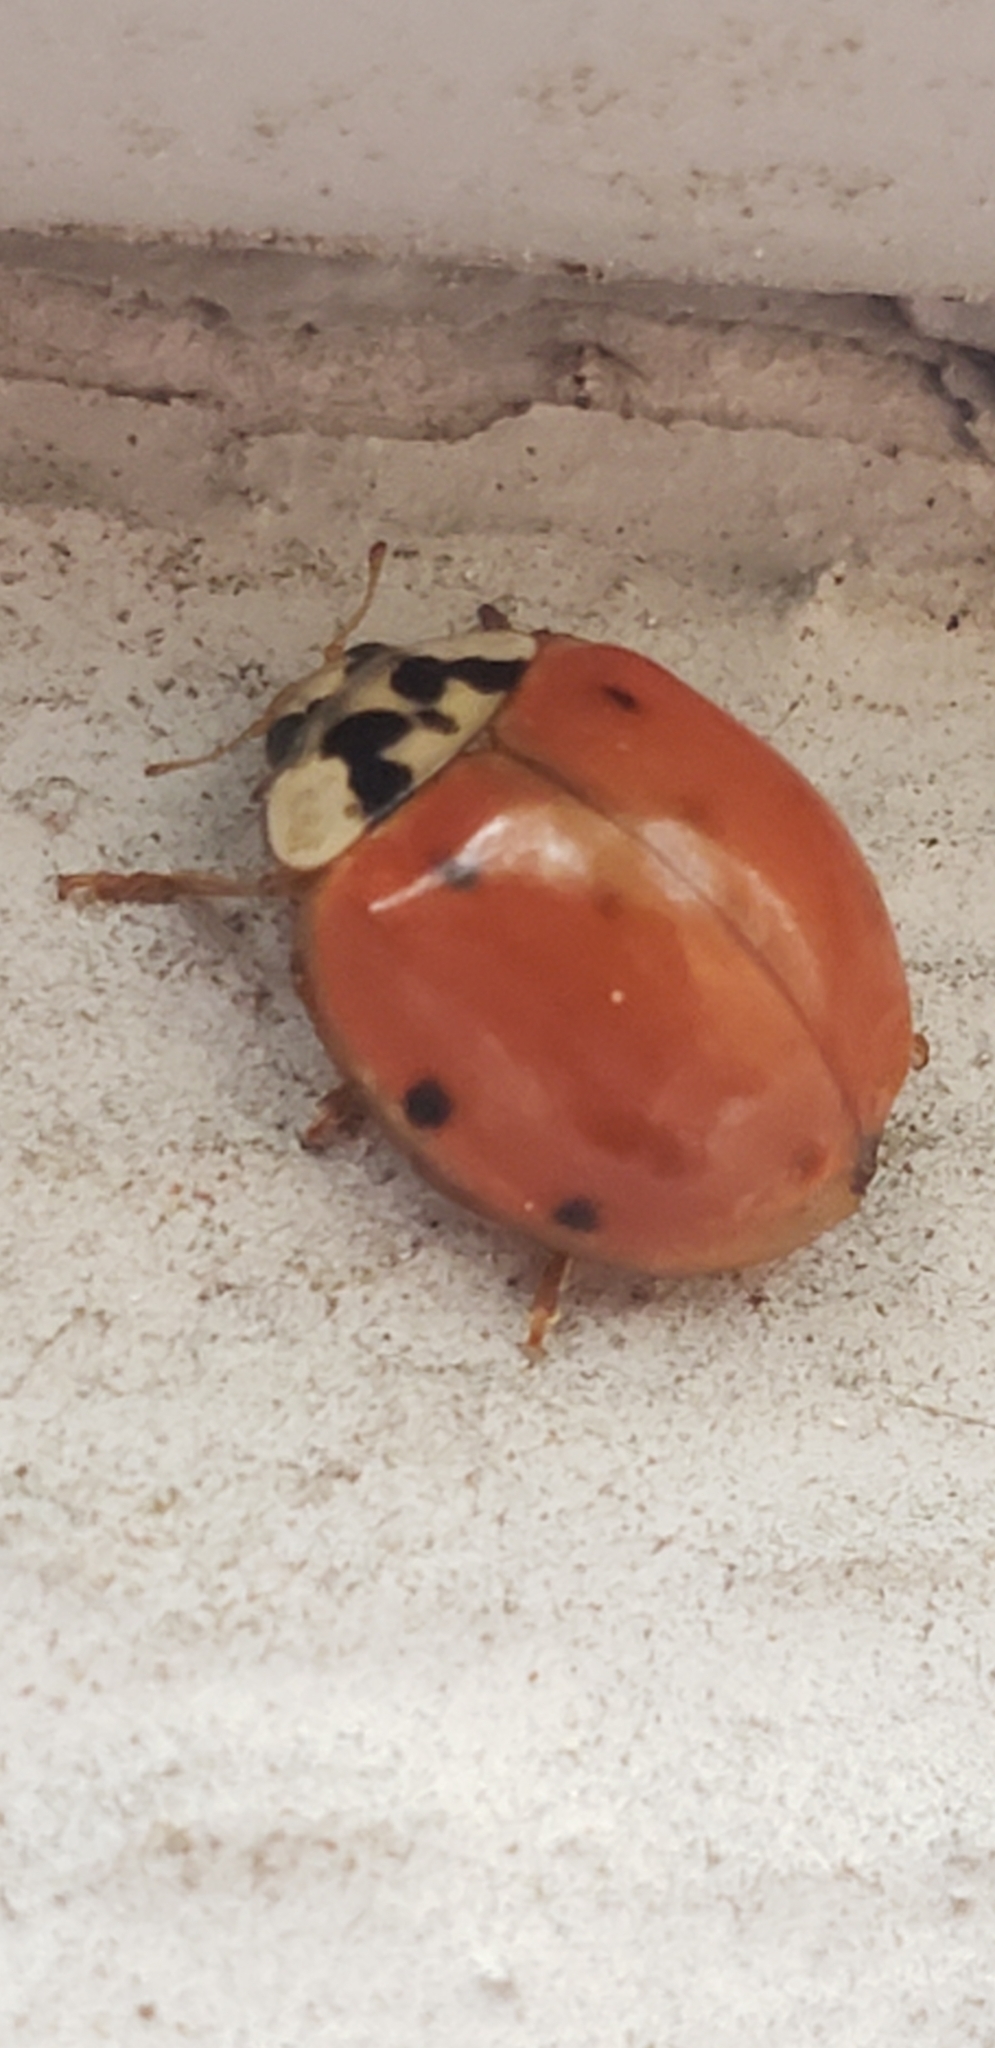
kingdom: Animalia
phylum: Arthropoda
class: Insecta
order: Coleoptera
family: Coccinellidae
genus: Harmonia
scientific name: Harmonia axyridis
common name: Harlequin ladybird
